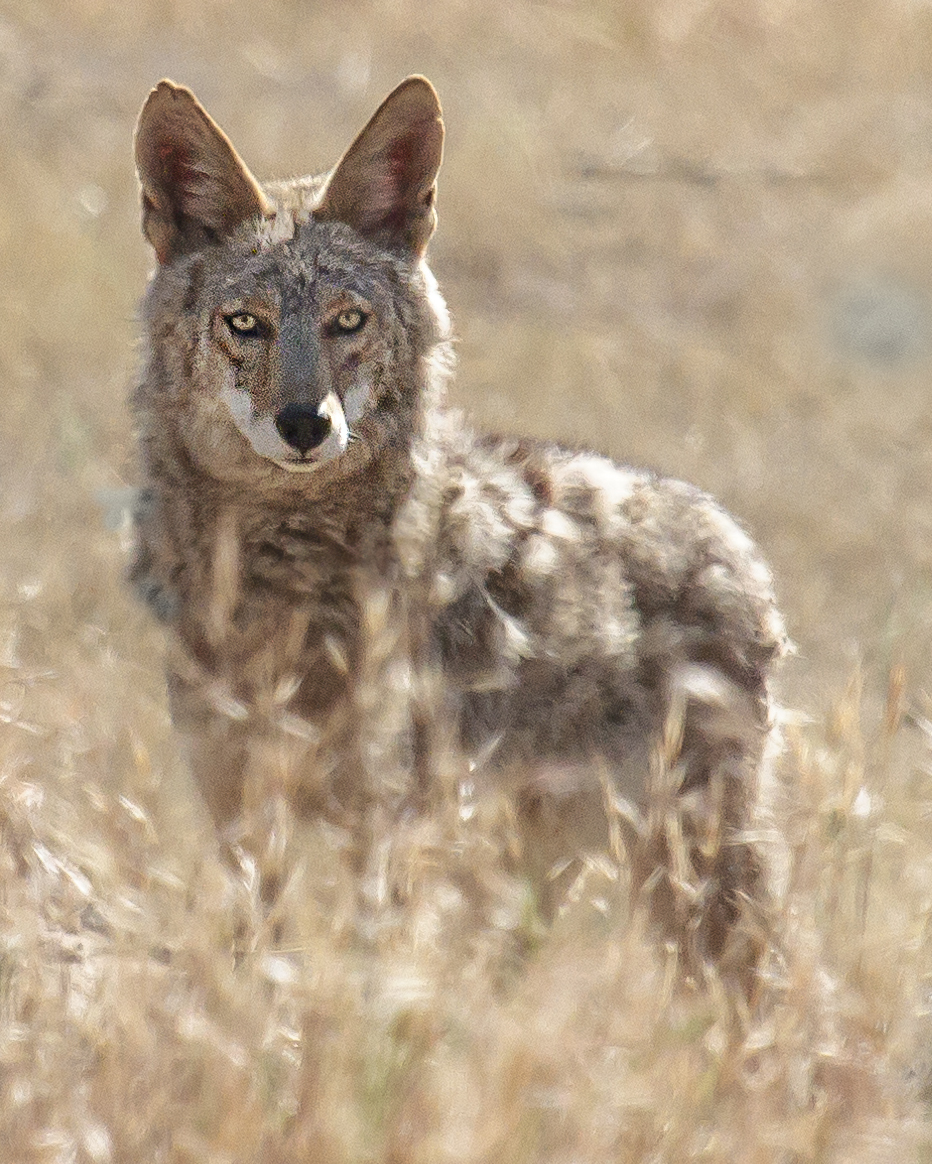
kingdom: Animalia
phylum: Chordata
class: Mammalia
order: Carnivora
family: Canidae
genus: Canis
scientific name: Canis latrans
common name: Coyote
